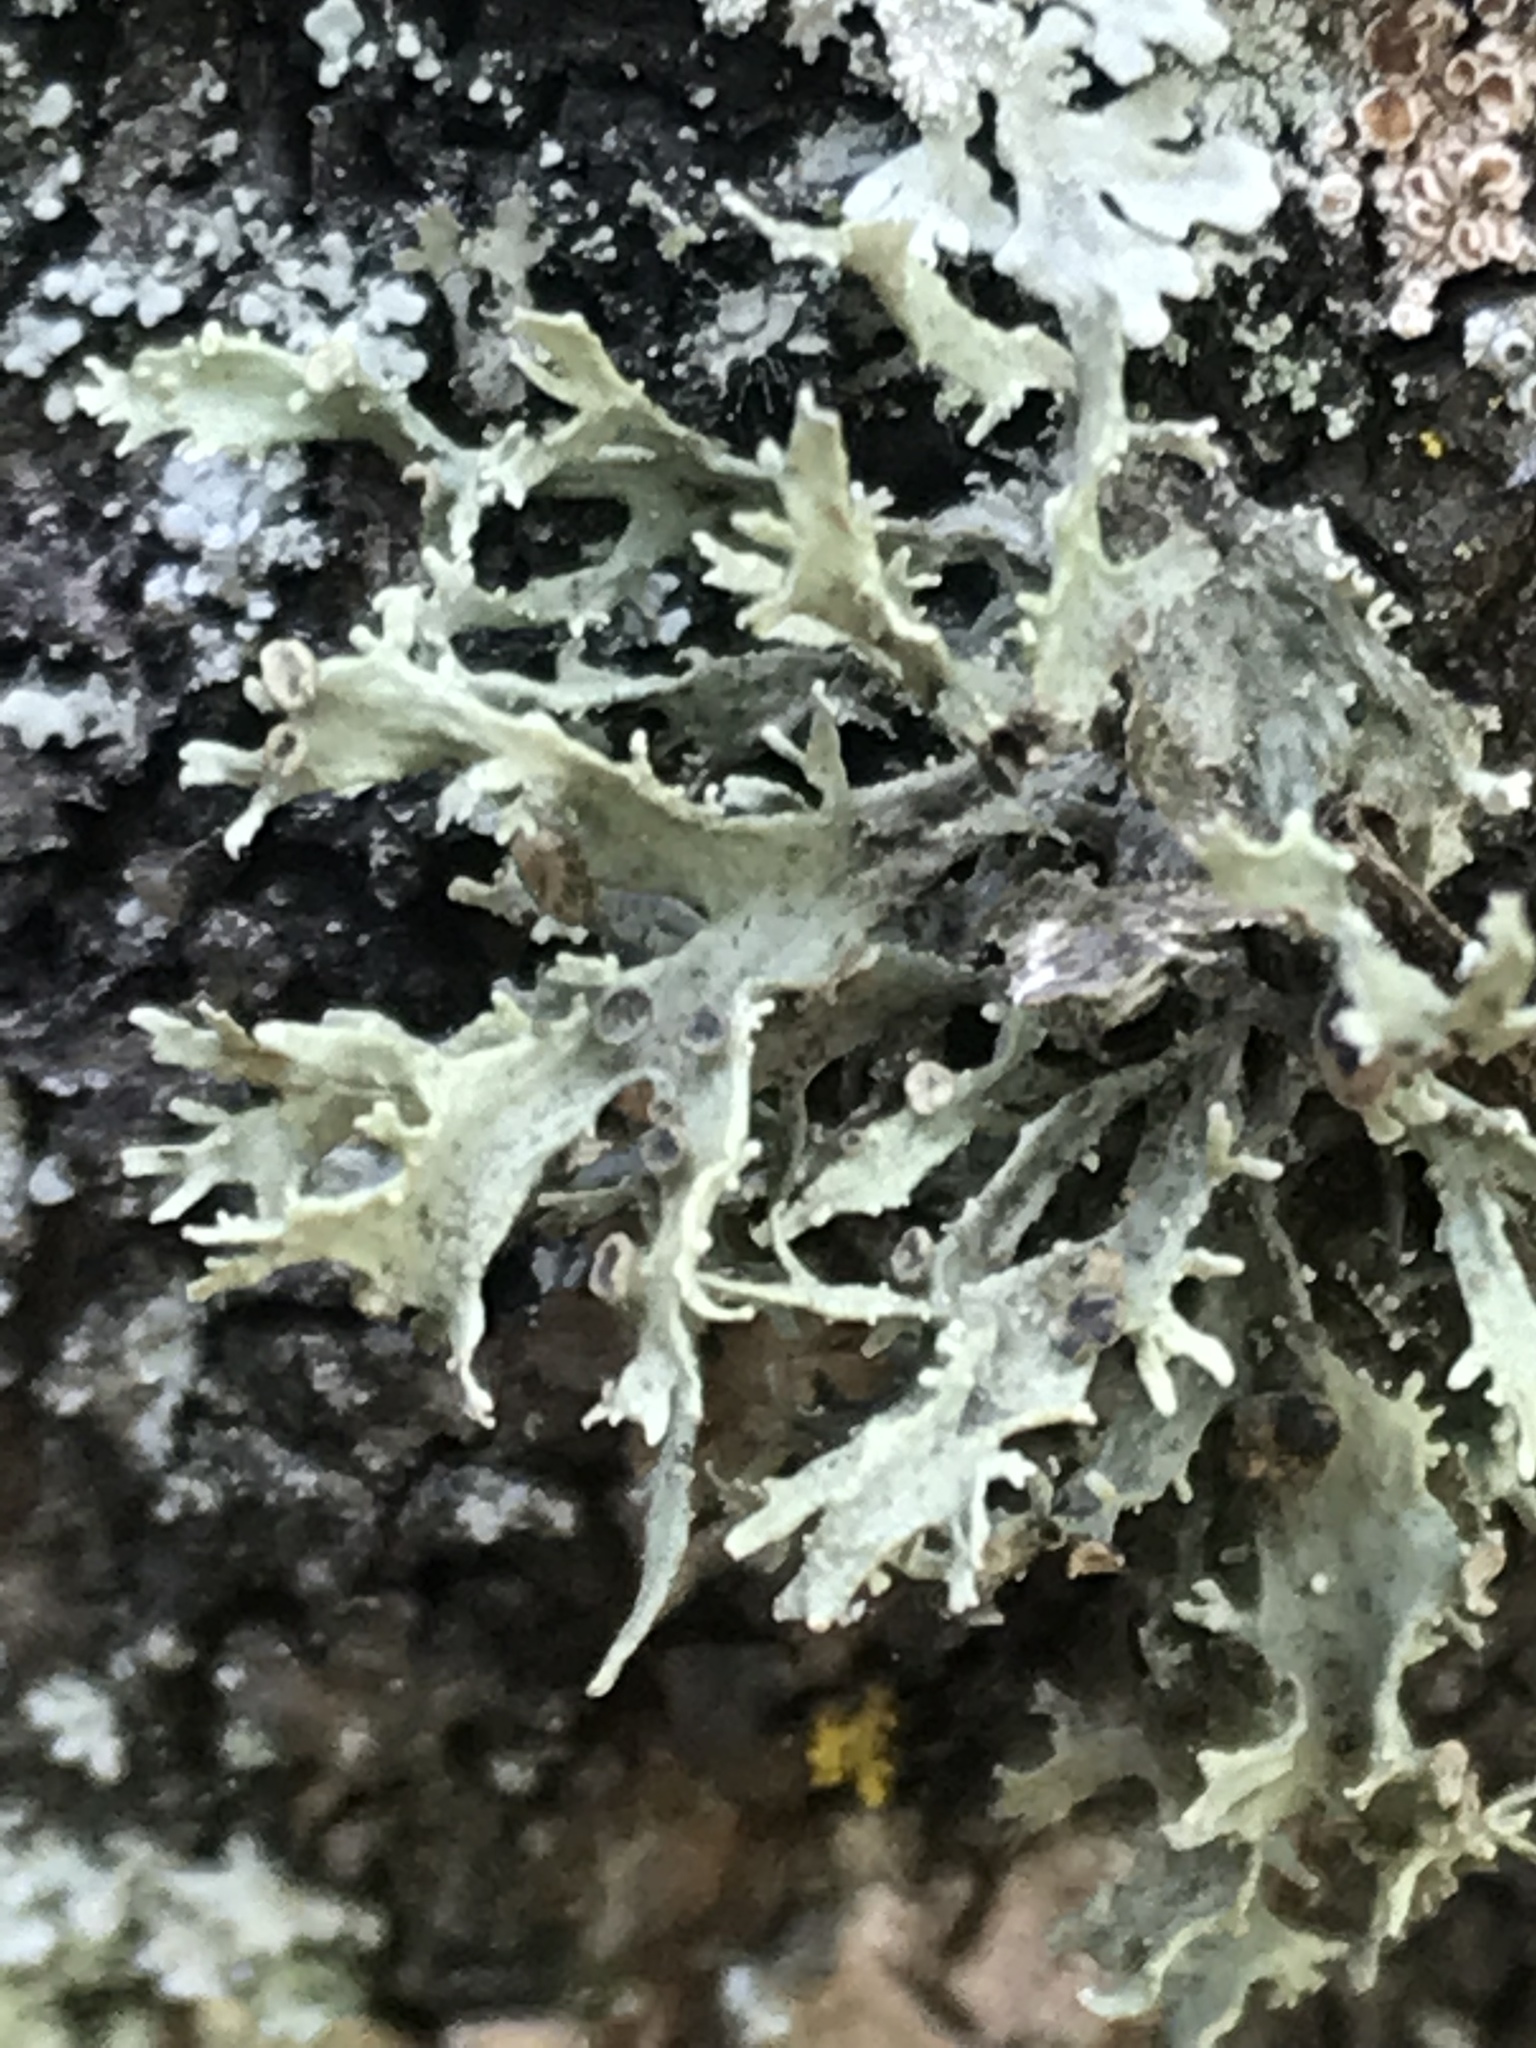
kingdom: Fungi
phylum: Ascomycota
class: Lecanoromycetes
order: Lecanorales
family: Ramalinaceae
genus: Ramalina
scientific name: Ramalina americana
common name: Sinewed bush lichen
